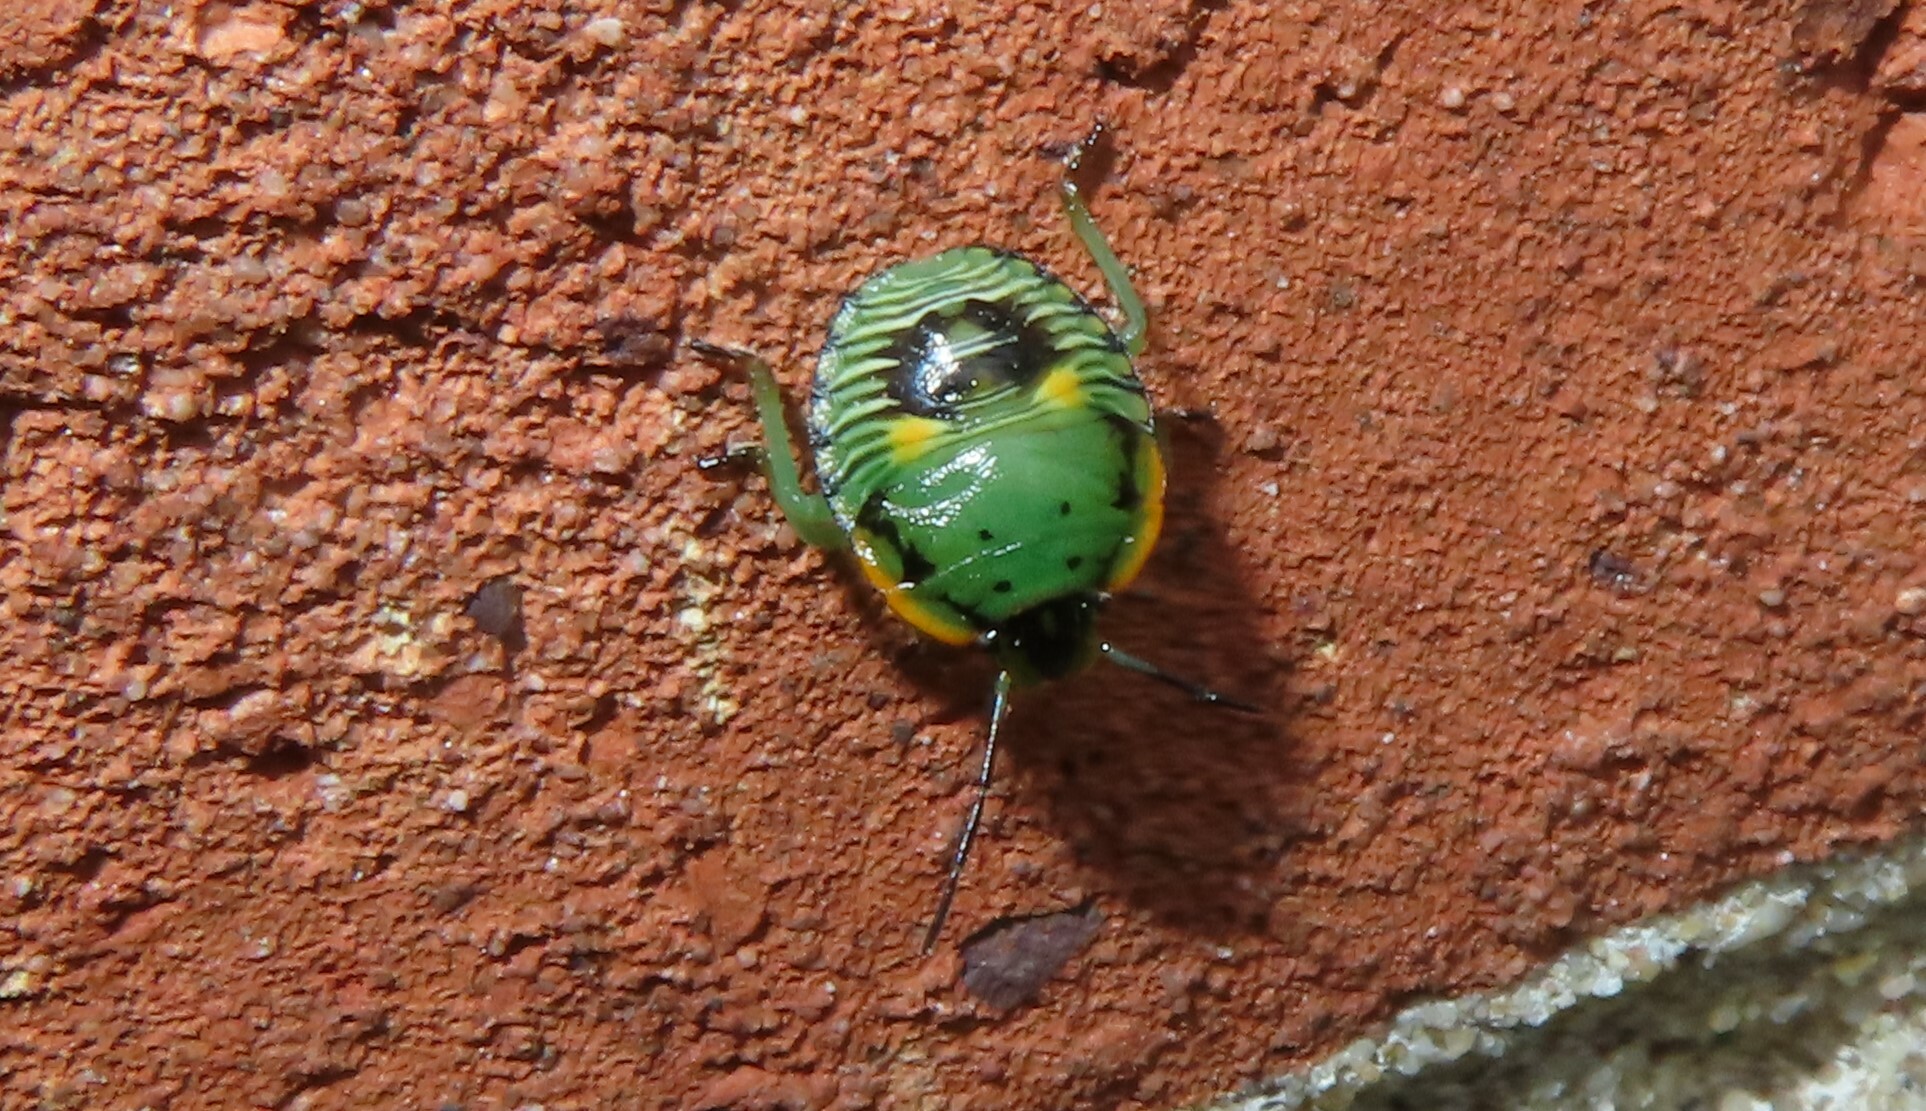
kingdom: Animalia
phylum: Arthropoda
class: Insecta
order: Hemiptera
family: Pentatomidae
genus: Chinavia
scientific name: Chinavia hilaris
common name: Green stink bug
